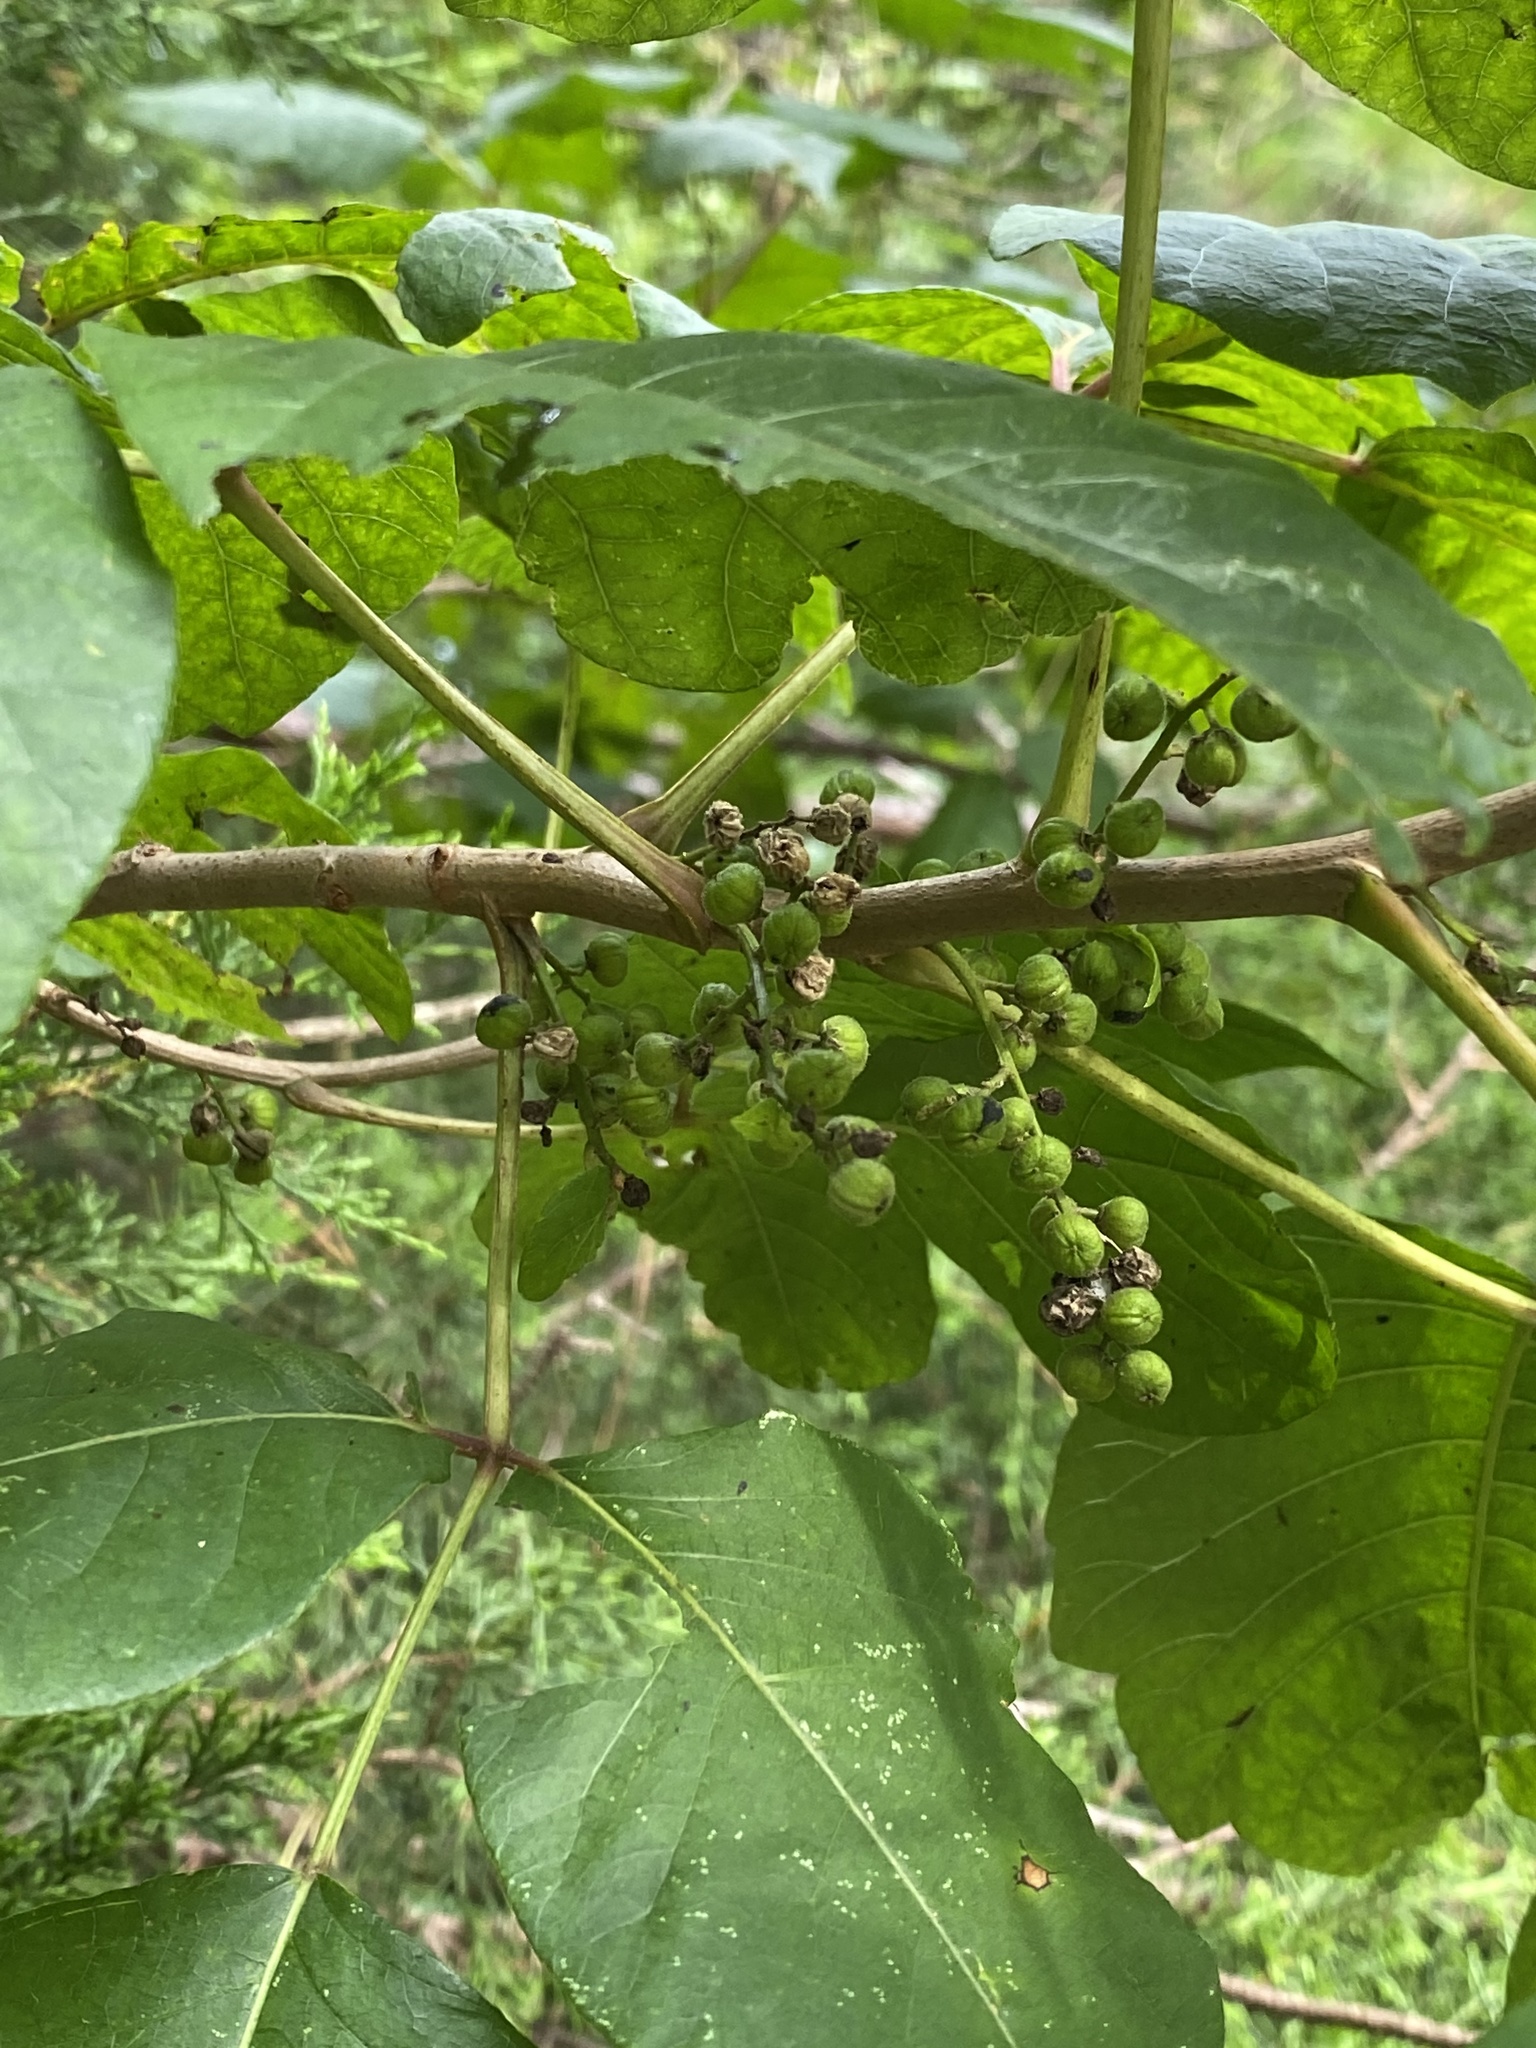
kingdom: Plantae
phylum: Tracheophyta
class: Magnoliopsida
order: Sapindales
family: Anacardiaceae
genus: Toxicodendron
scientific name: Toxicodendron radicans
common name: Poison ivy
